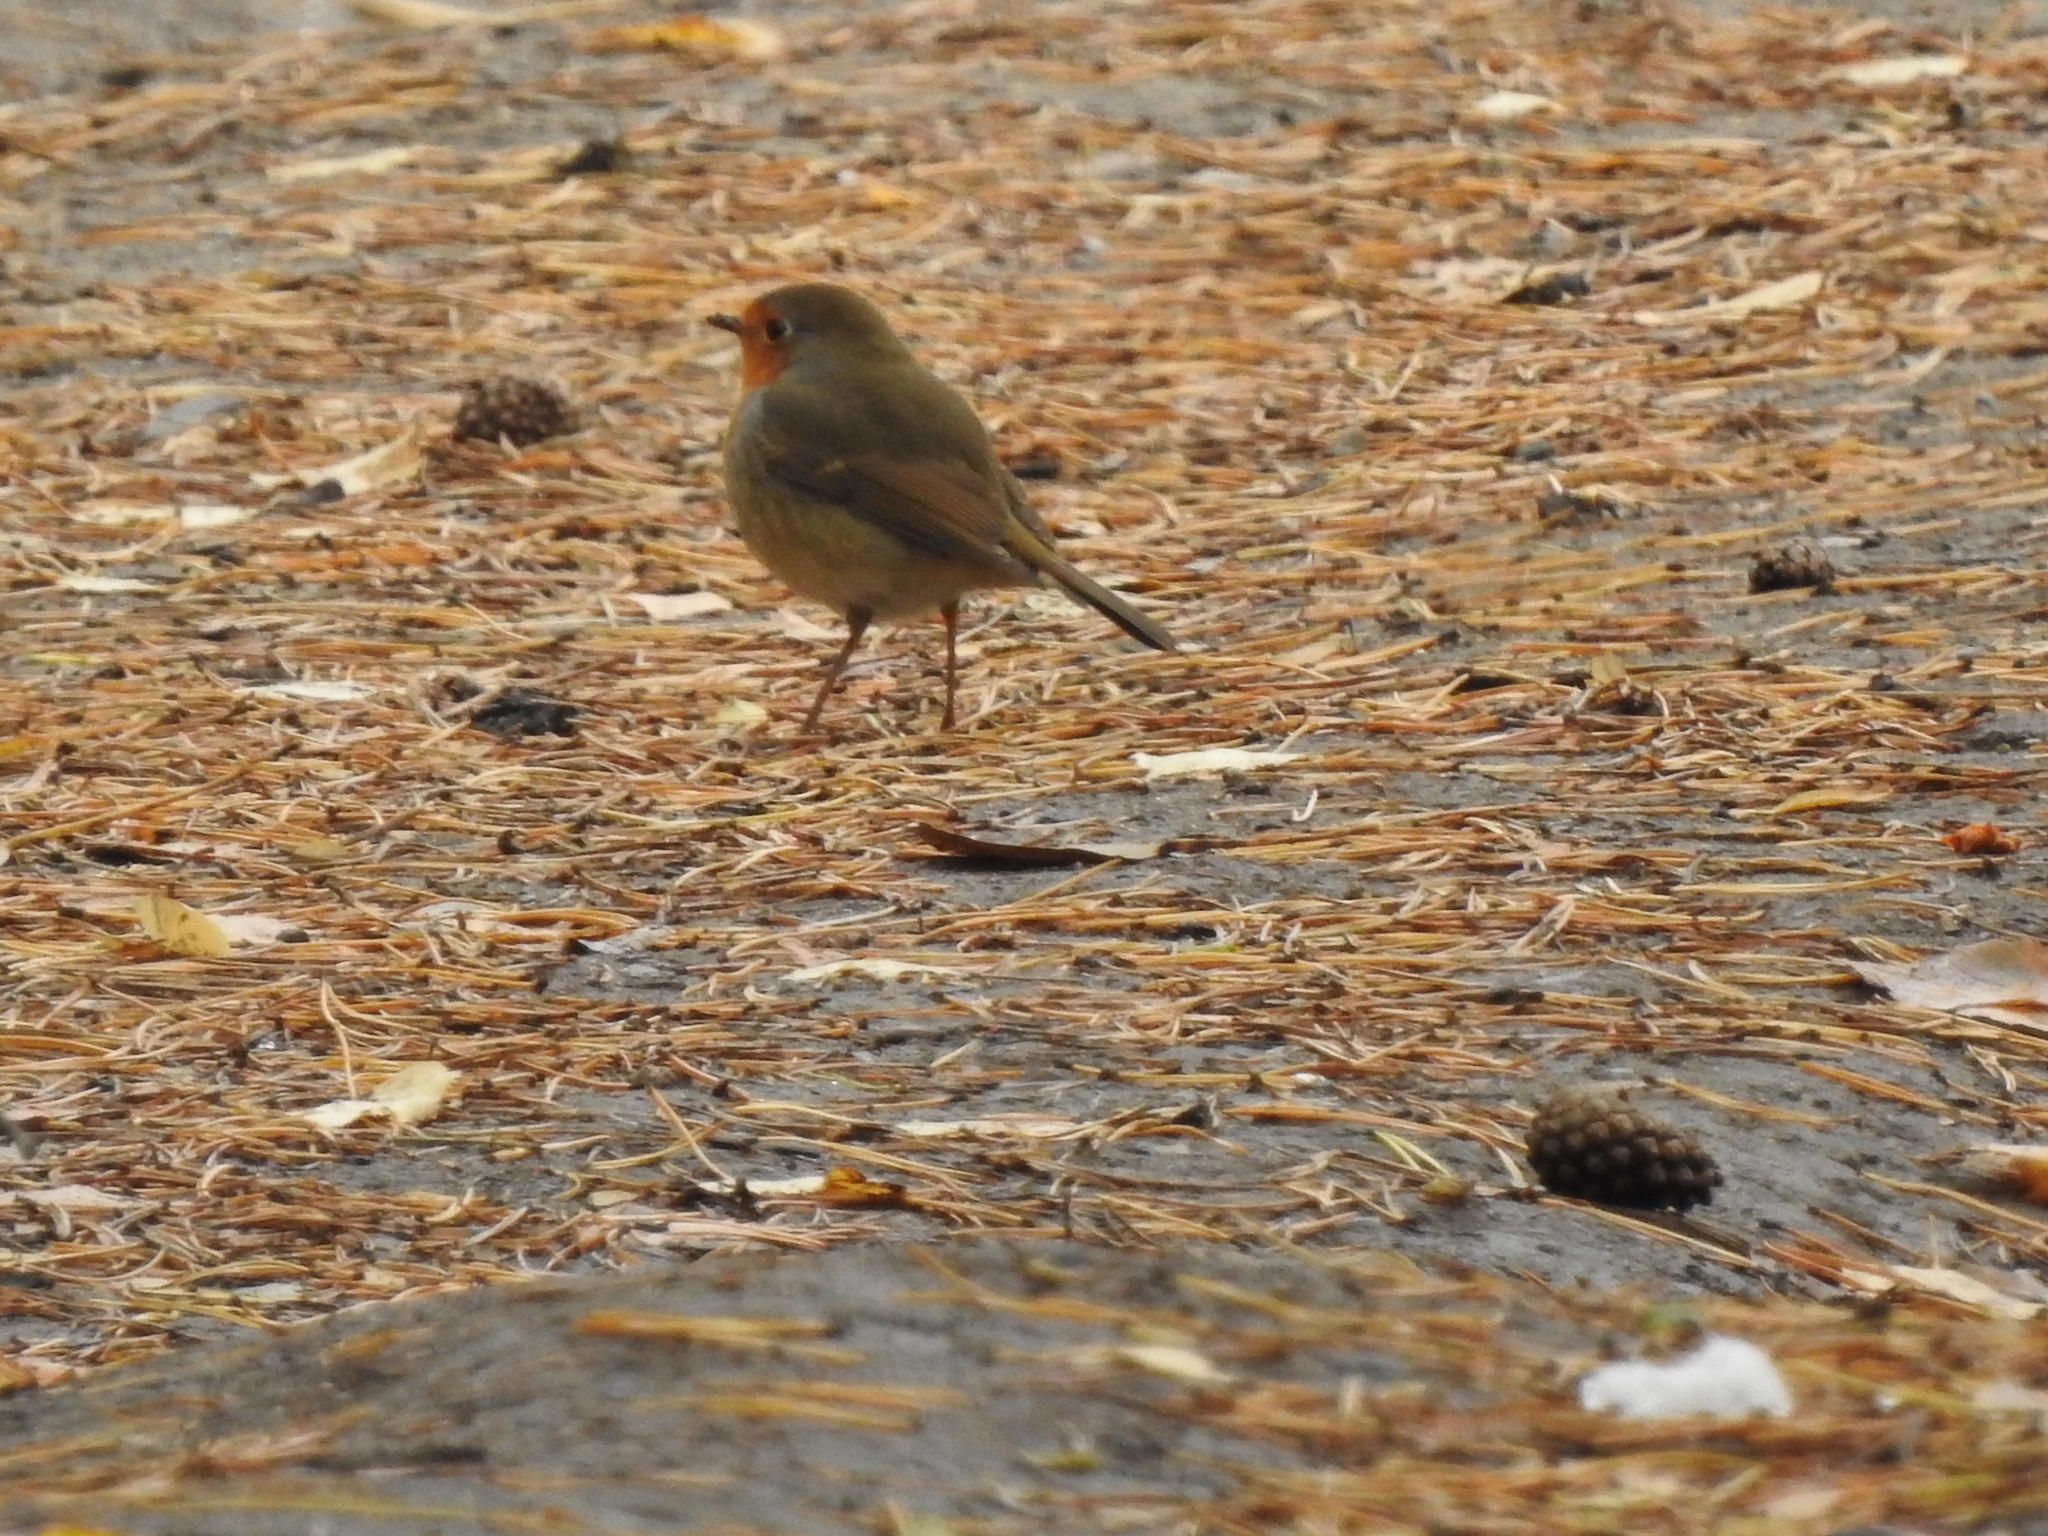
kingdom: Animalia
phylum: Chordata
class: Aves
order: Passeriformes
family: Muscicapidae
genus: Erithacus
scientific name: Erithacus rubecula
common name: European robin
